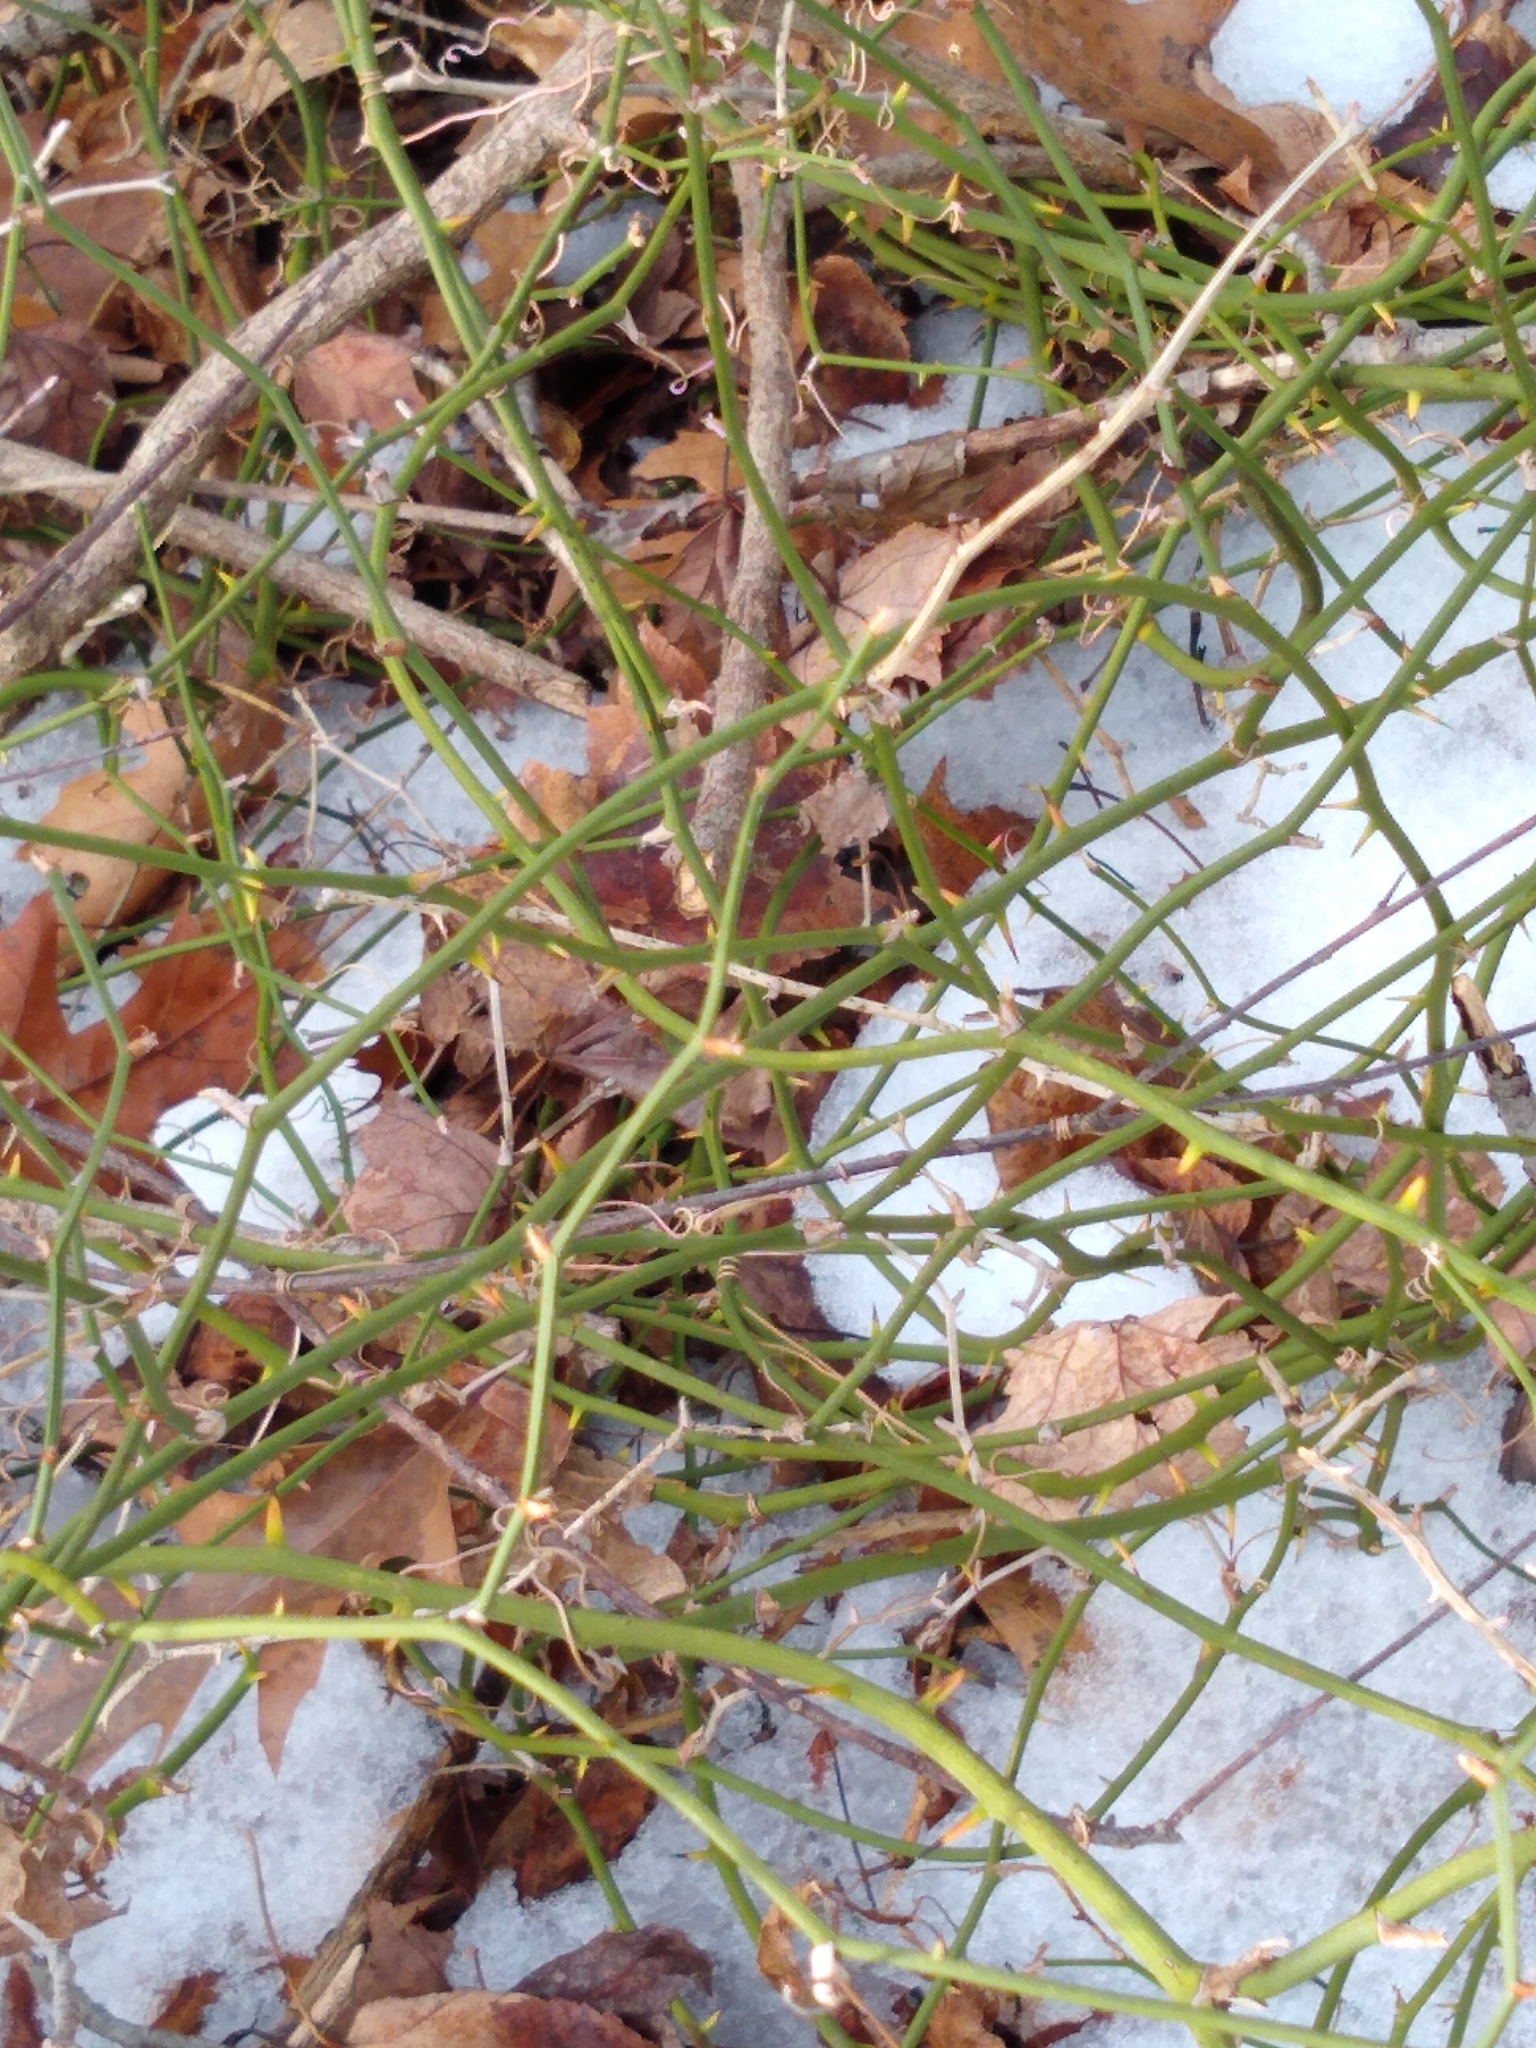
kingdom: Plantae
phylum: Tracheophyta
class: Liliopsida
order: Liliales
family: Smilacaceae
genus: Smilax
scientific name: Smilax rotundifolia
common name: Bullbriar
